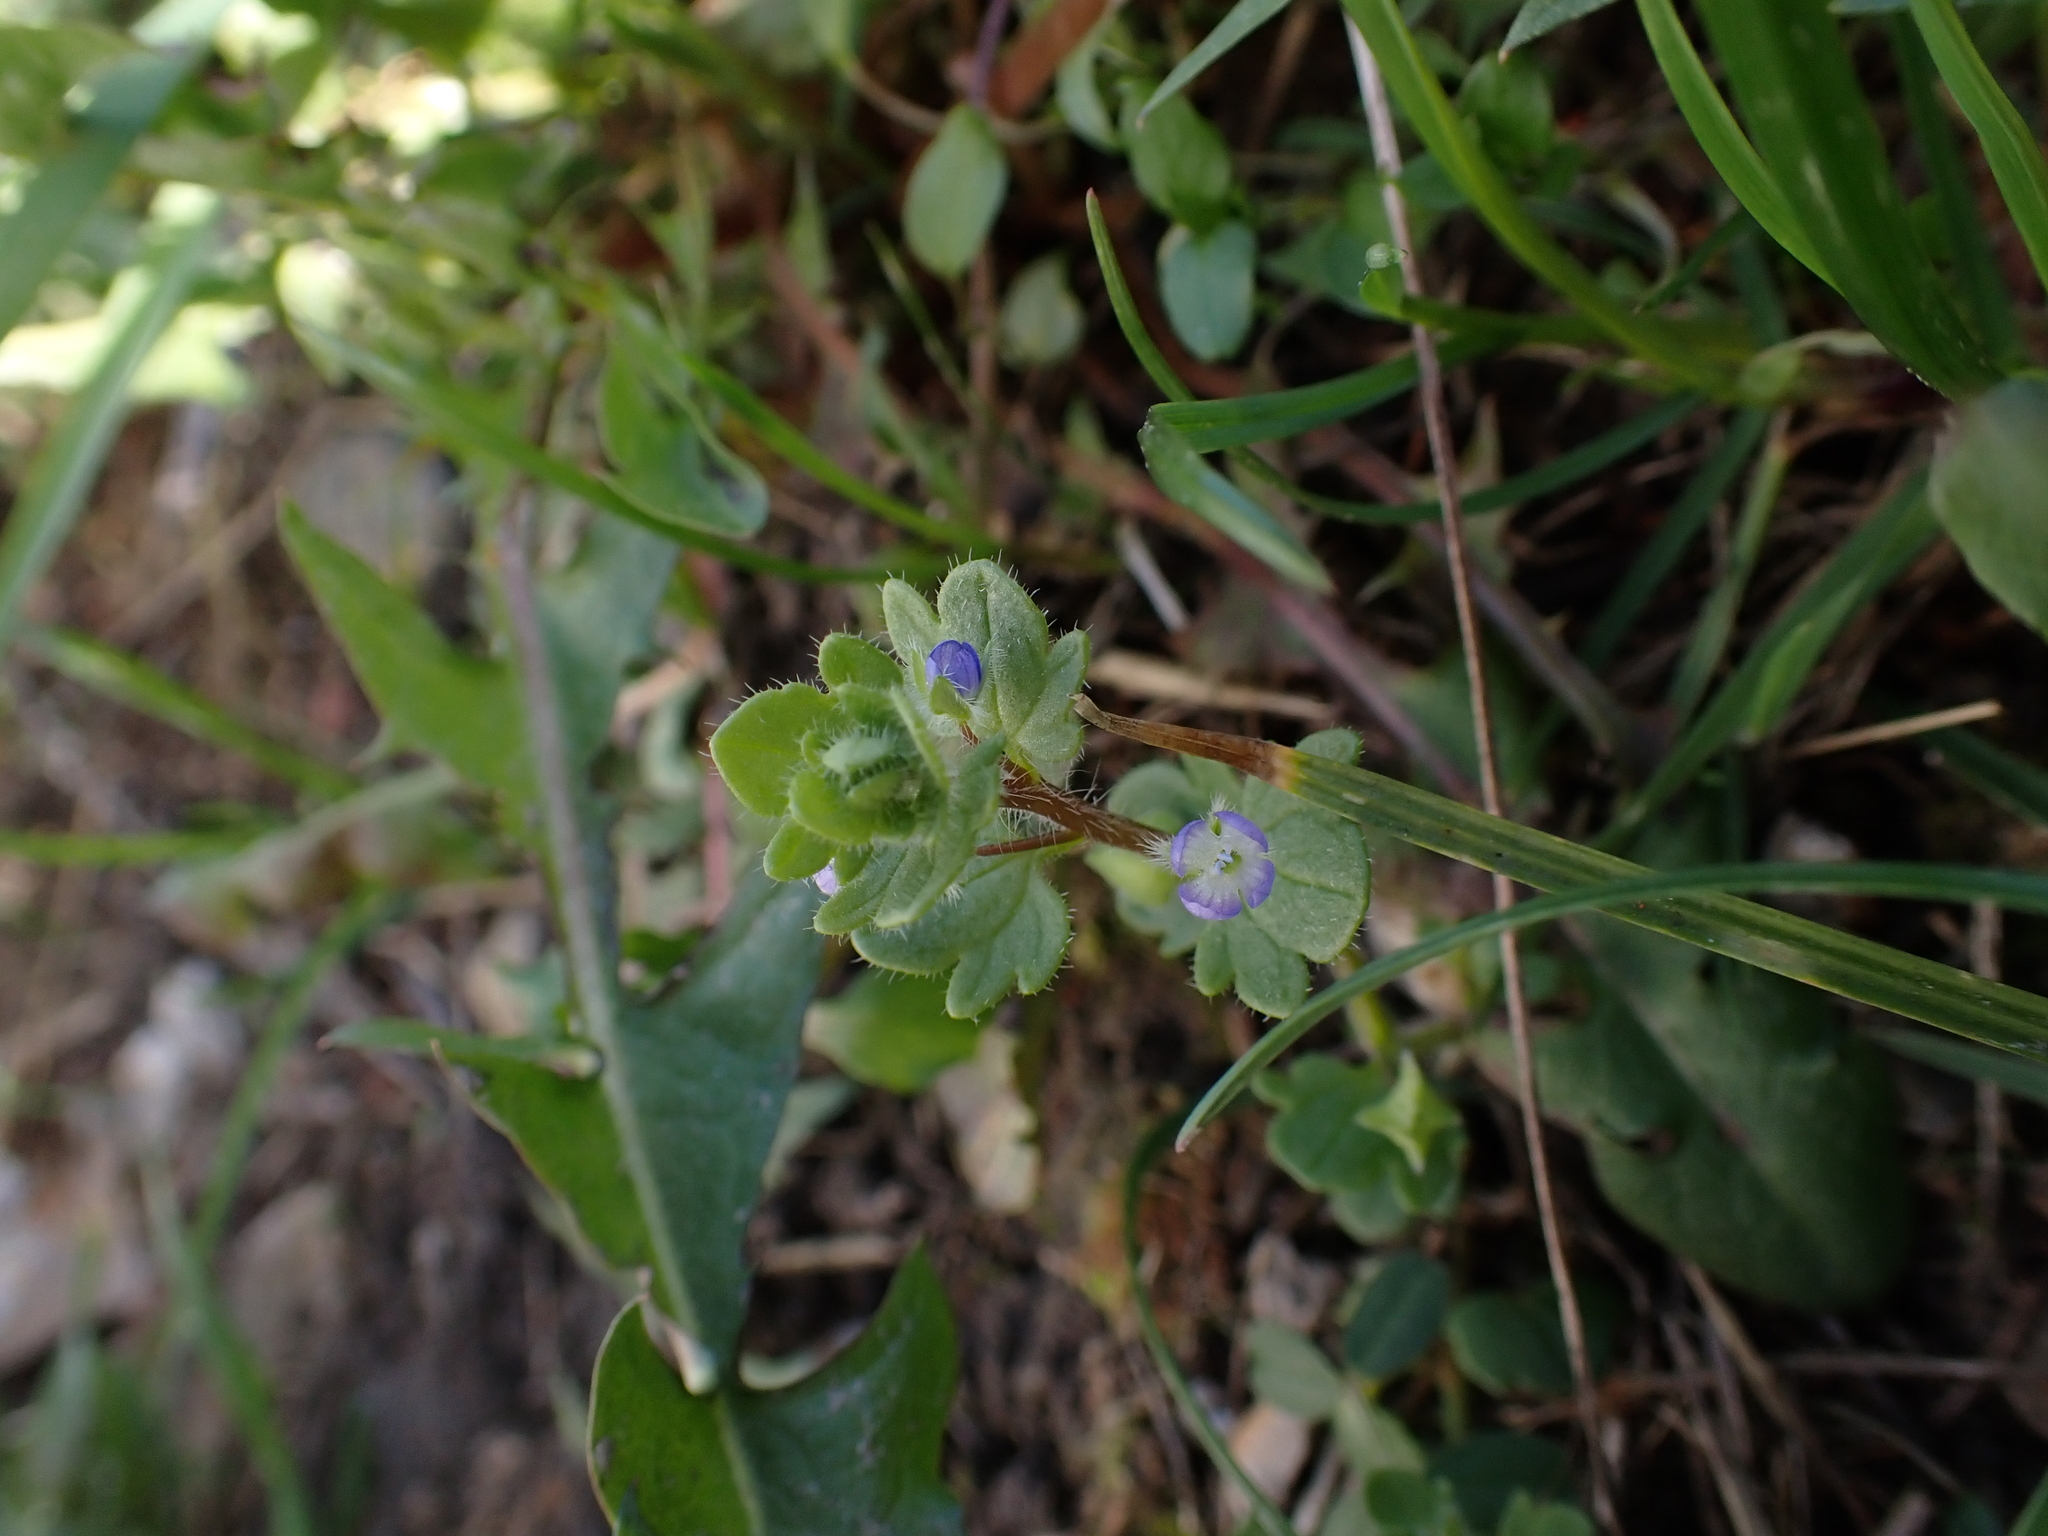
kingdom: Plantae
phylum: Tracheophyta
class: Magnoliopsida
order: Lamiales
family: Plantaginaceae
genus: Veronica
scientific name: Veronica triloba
